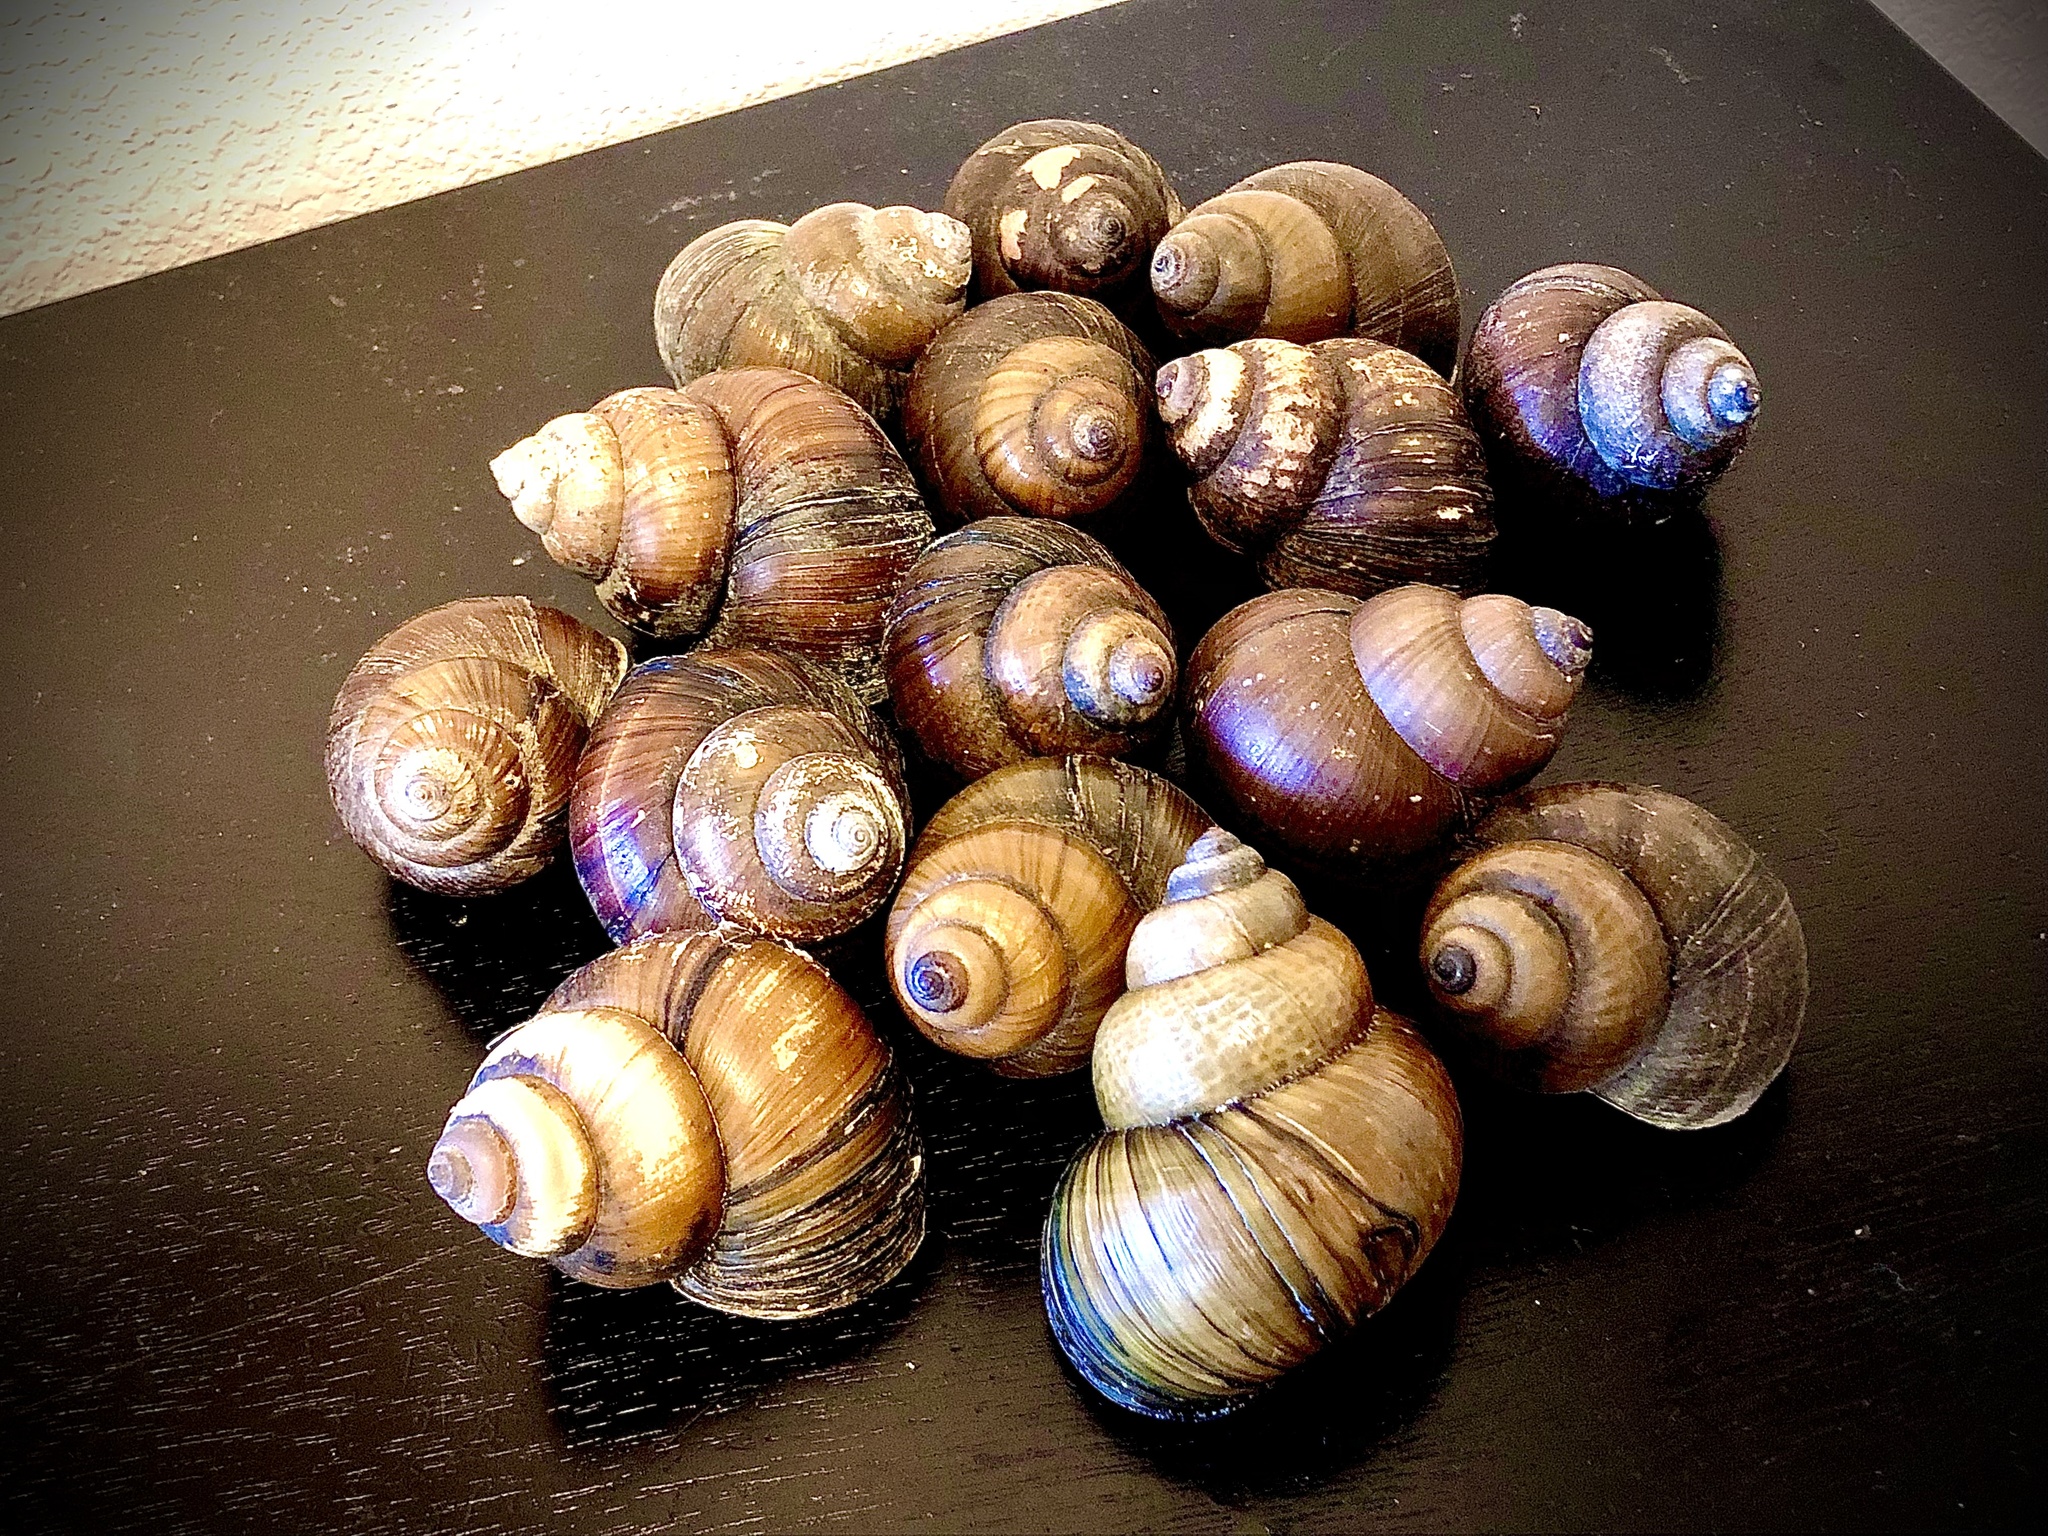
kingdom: Animalia
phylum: Mollusca
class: Gastropoda
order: Architaenioglossa
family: Viviparidae
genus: Cipangopaludina
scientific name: Cipangopaludina chinensis
